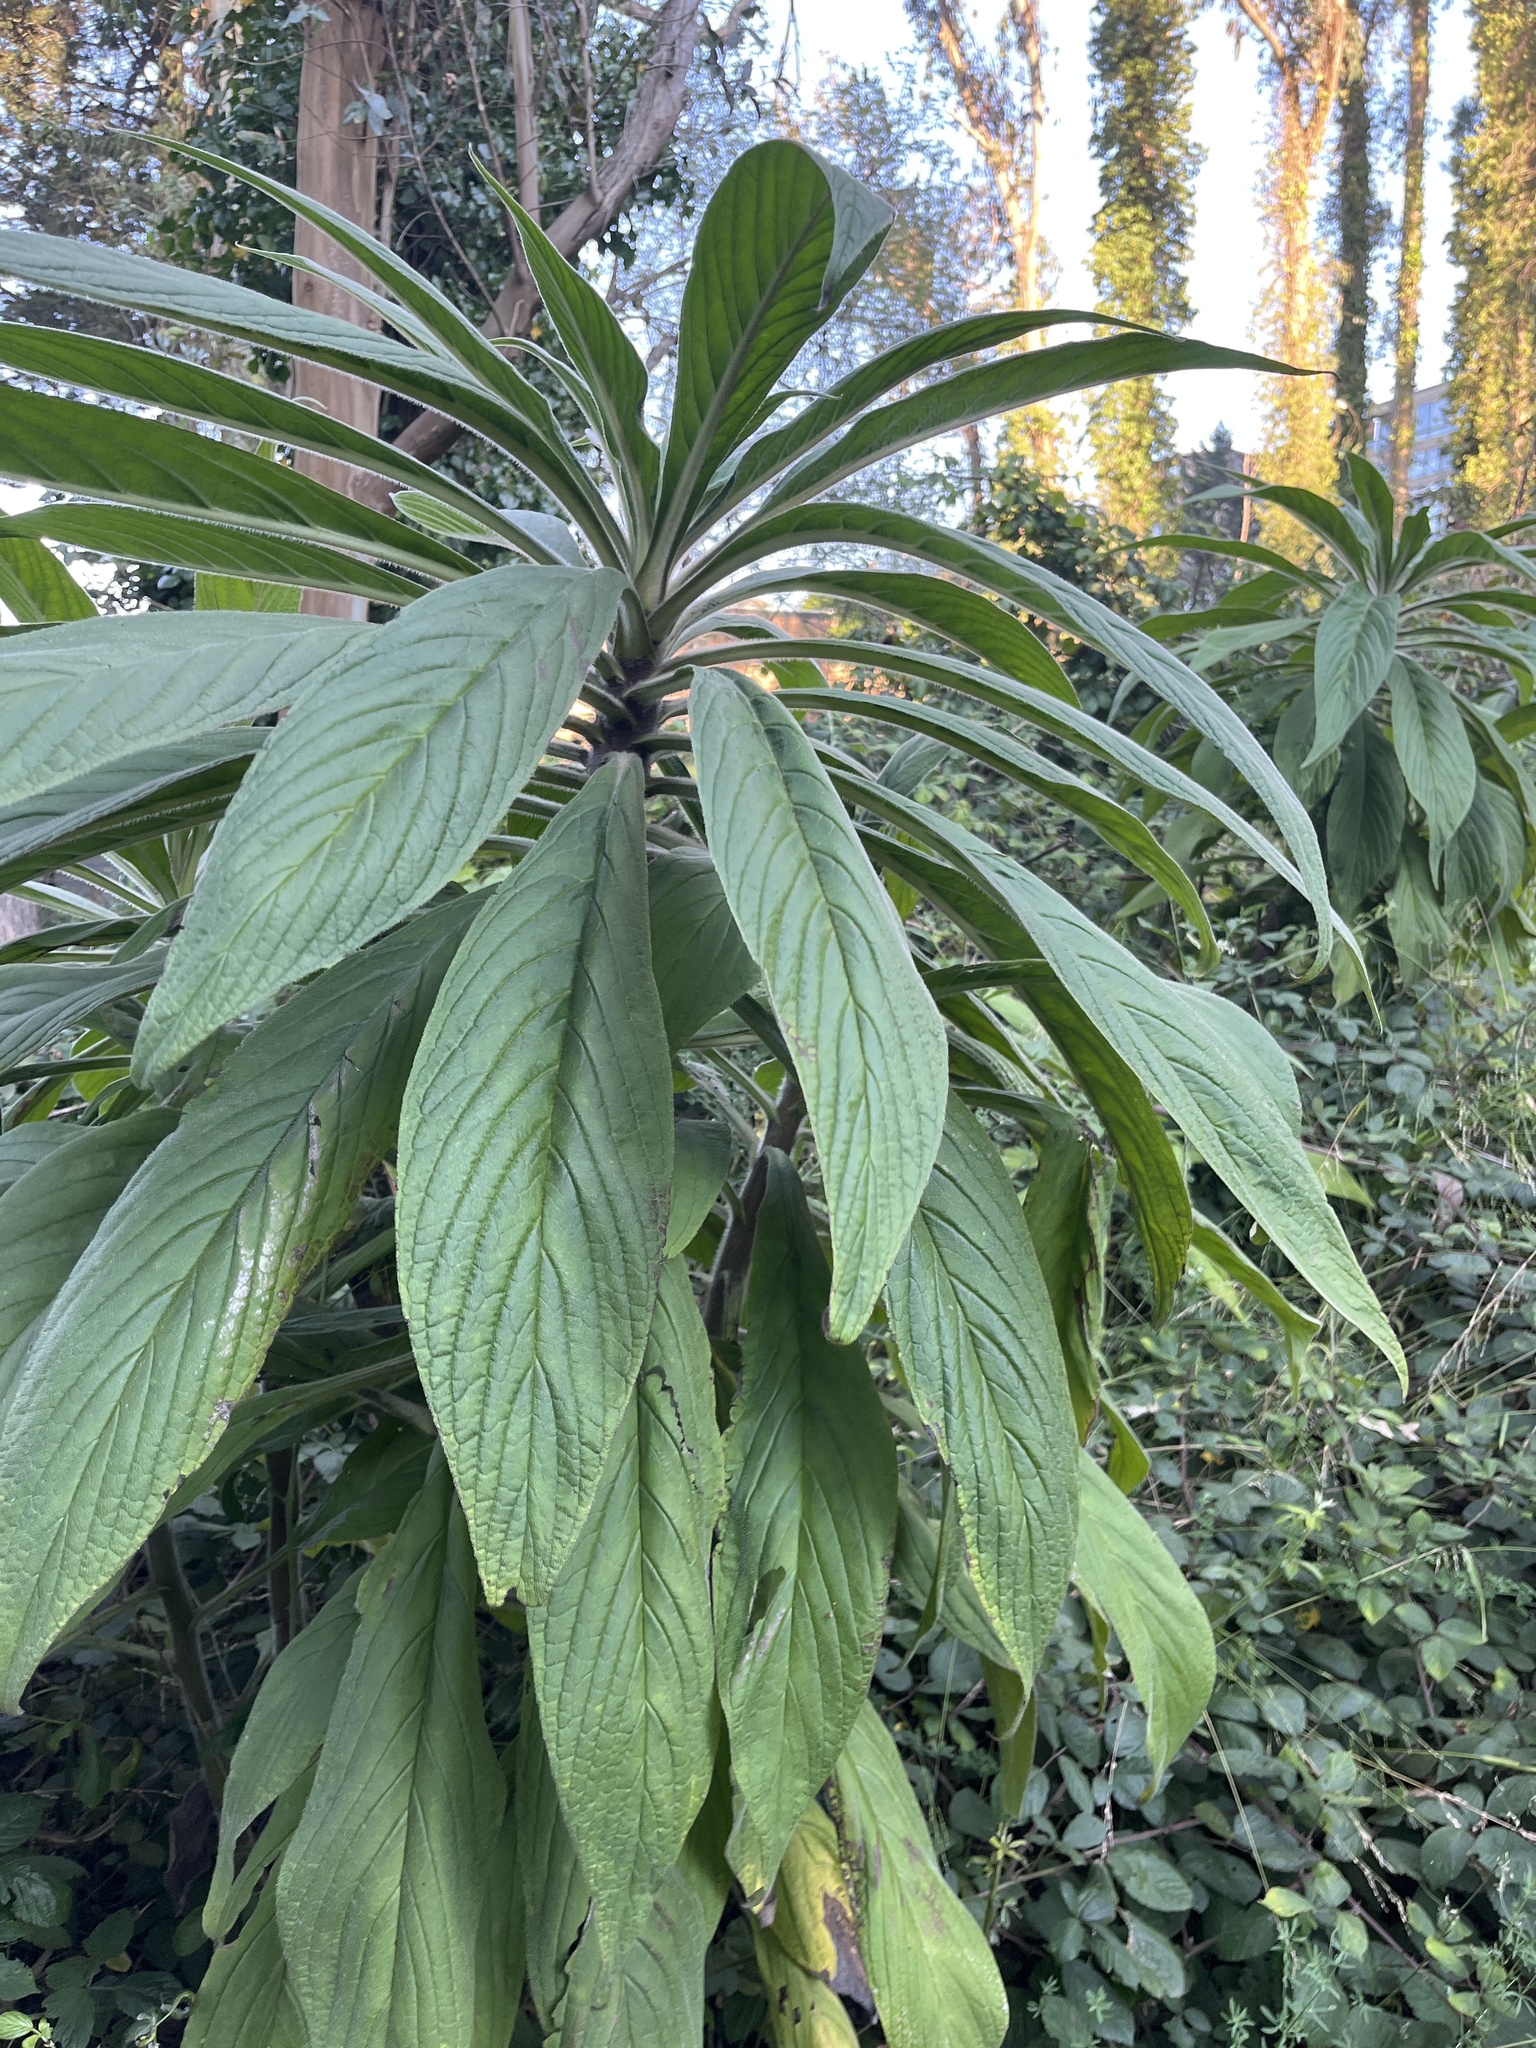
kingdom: Plantae
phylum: Tracheophyta
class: Magnoliopsida
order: Boraginales
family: Boraginaceae
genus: Echium
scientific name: Echium pininana
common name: Giant viper's-bugloss
